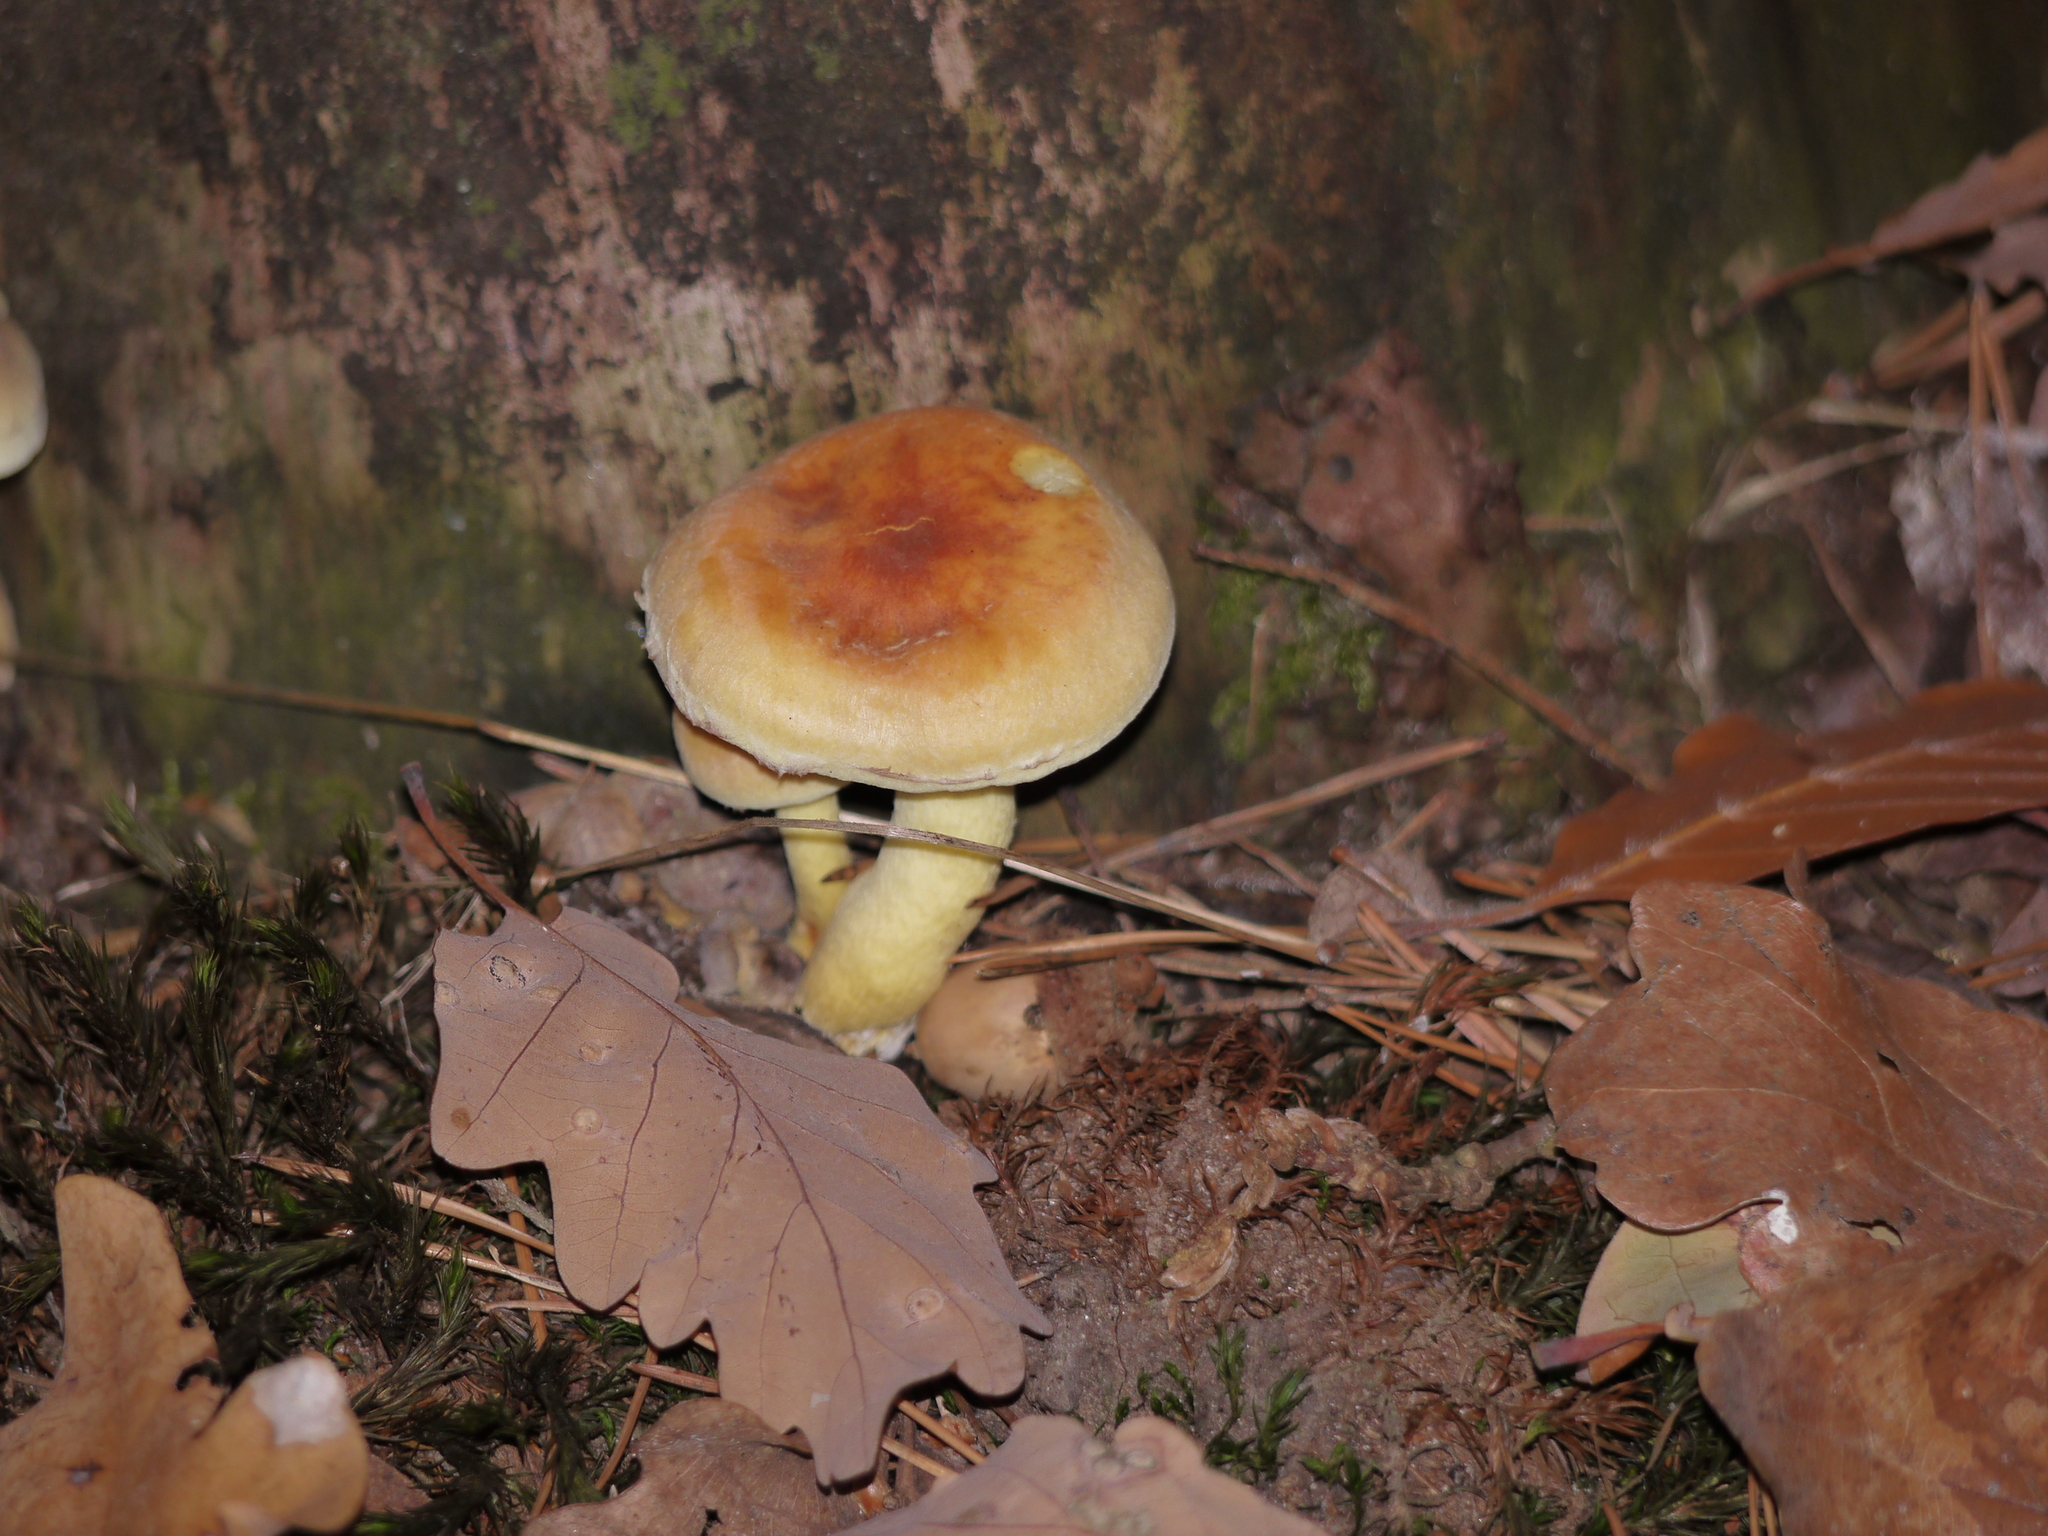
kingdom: Fungi
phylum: Basidiomycota
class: Agaricomycetes
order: Agaricales
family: Strophariaceae
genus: Hypholoma
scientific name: Hypholoma fasciculare
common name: Sulphur tuft
